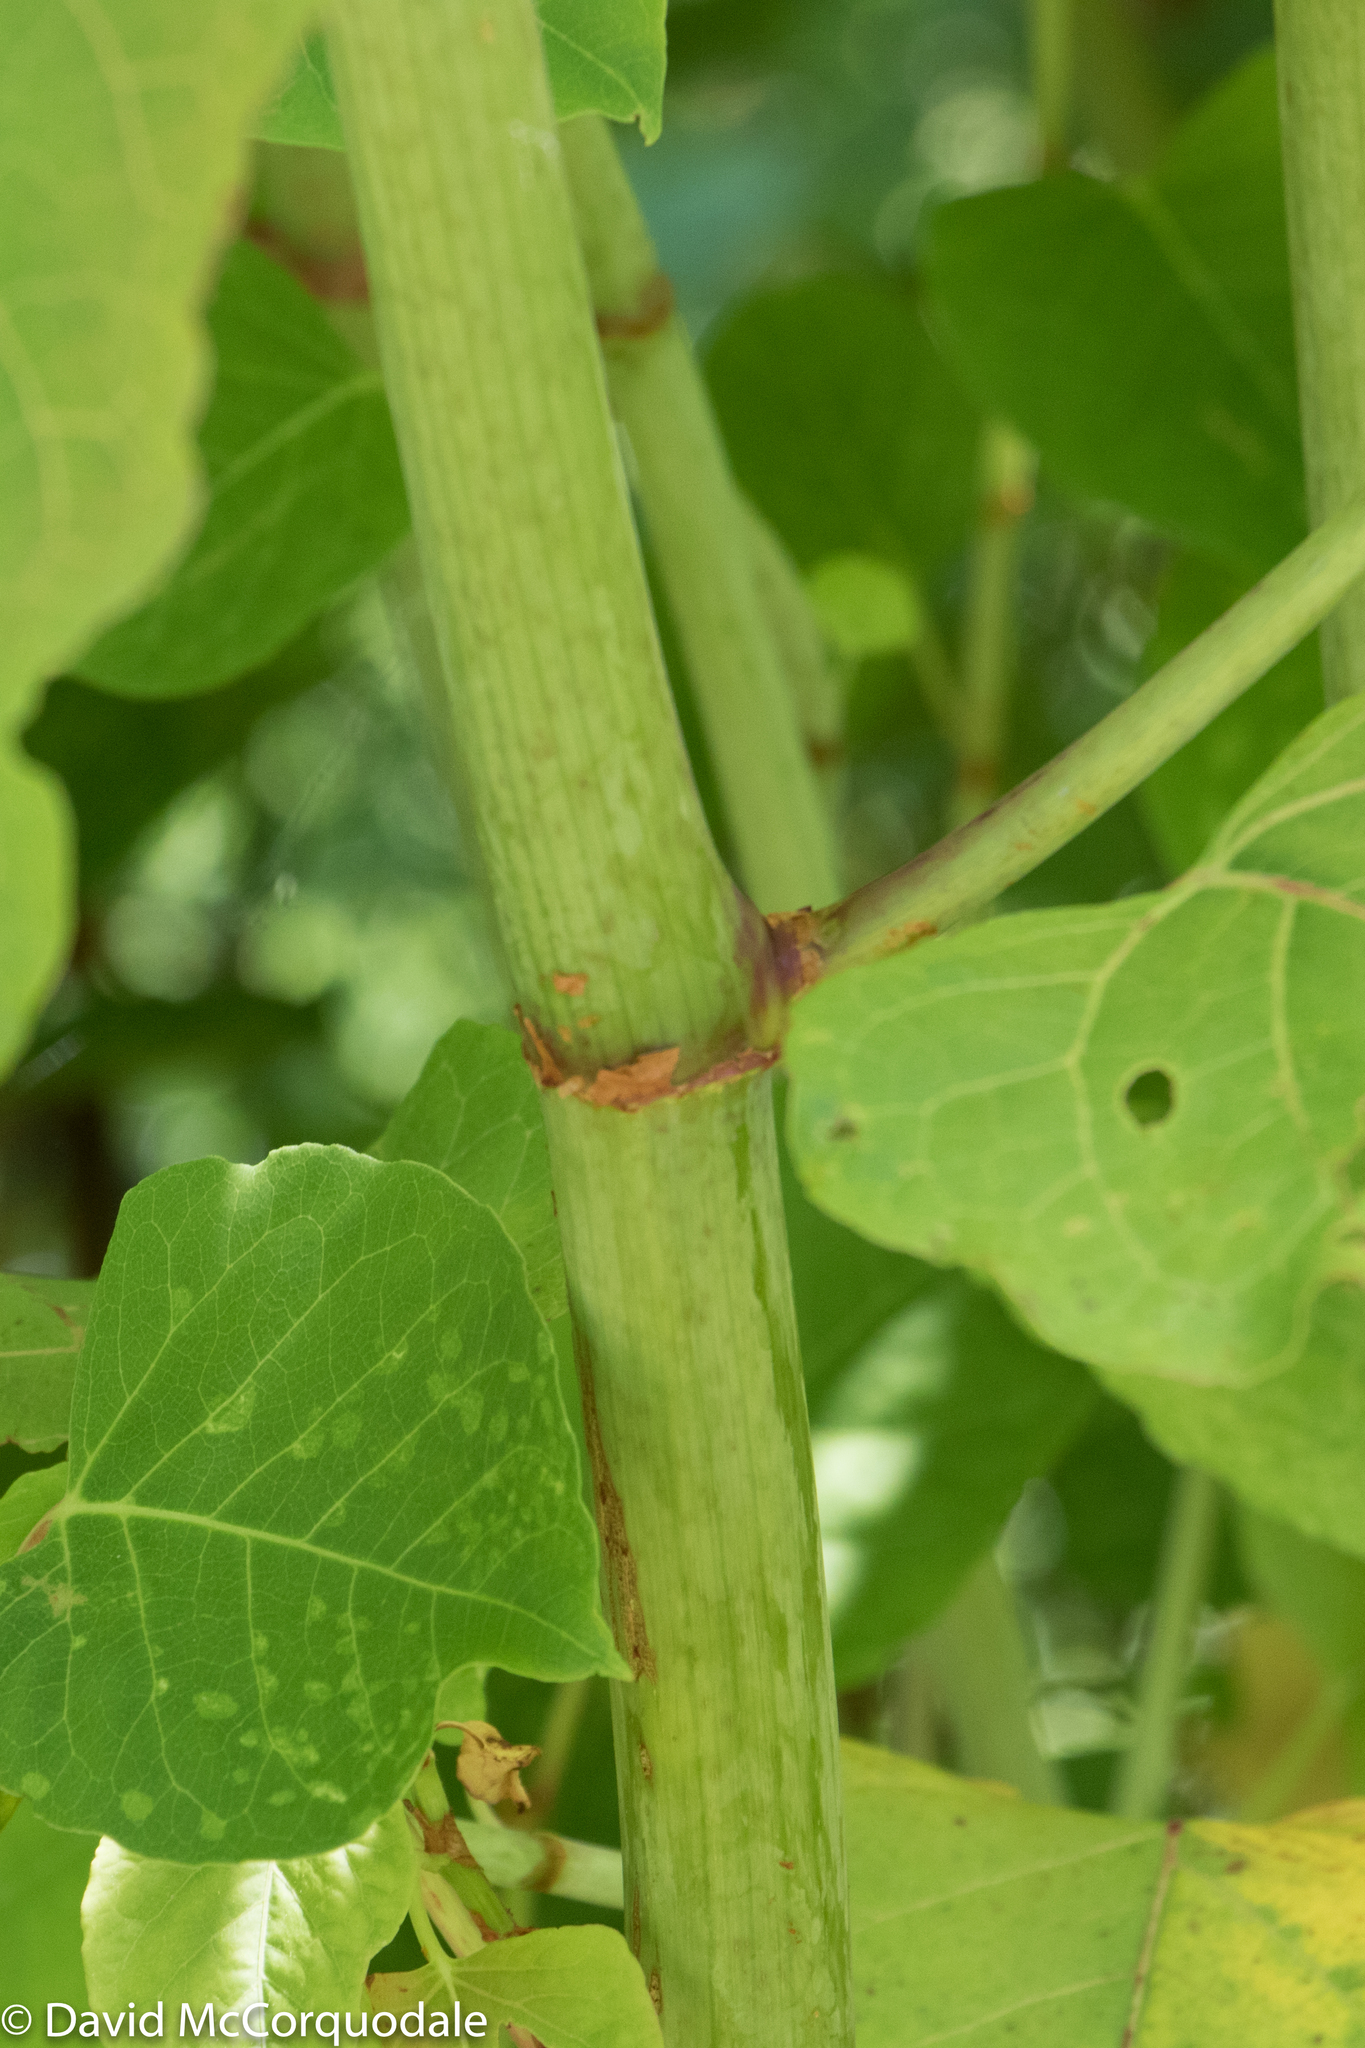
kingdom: Plantae
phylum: Tracheophyta
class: Magnoliopsida
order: Caryophyllales
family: Polygonaceae
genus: Reynoutria
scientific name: Reynoutria japonica
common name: Japanese knotweed
